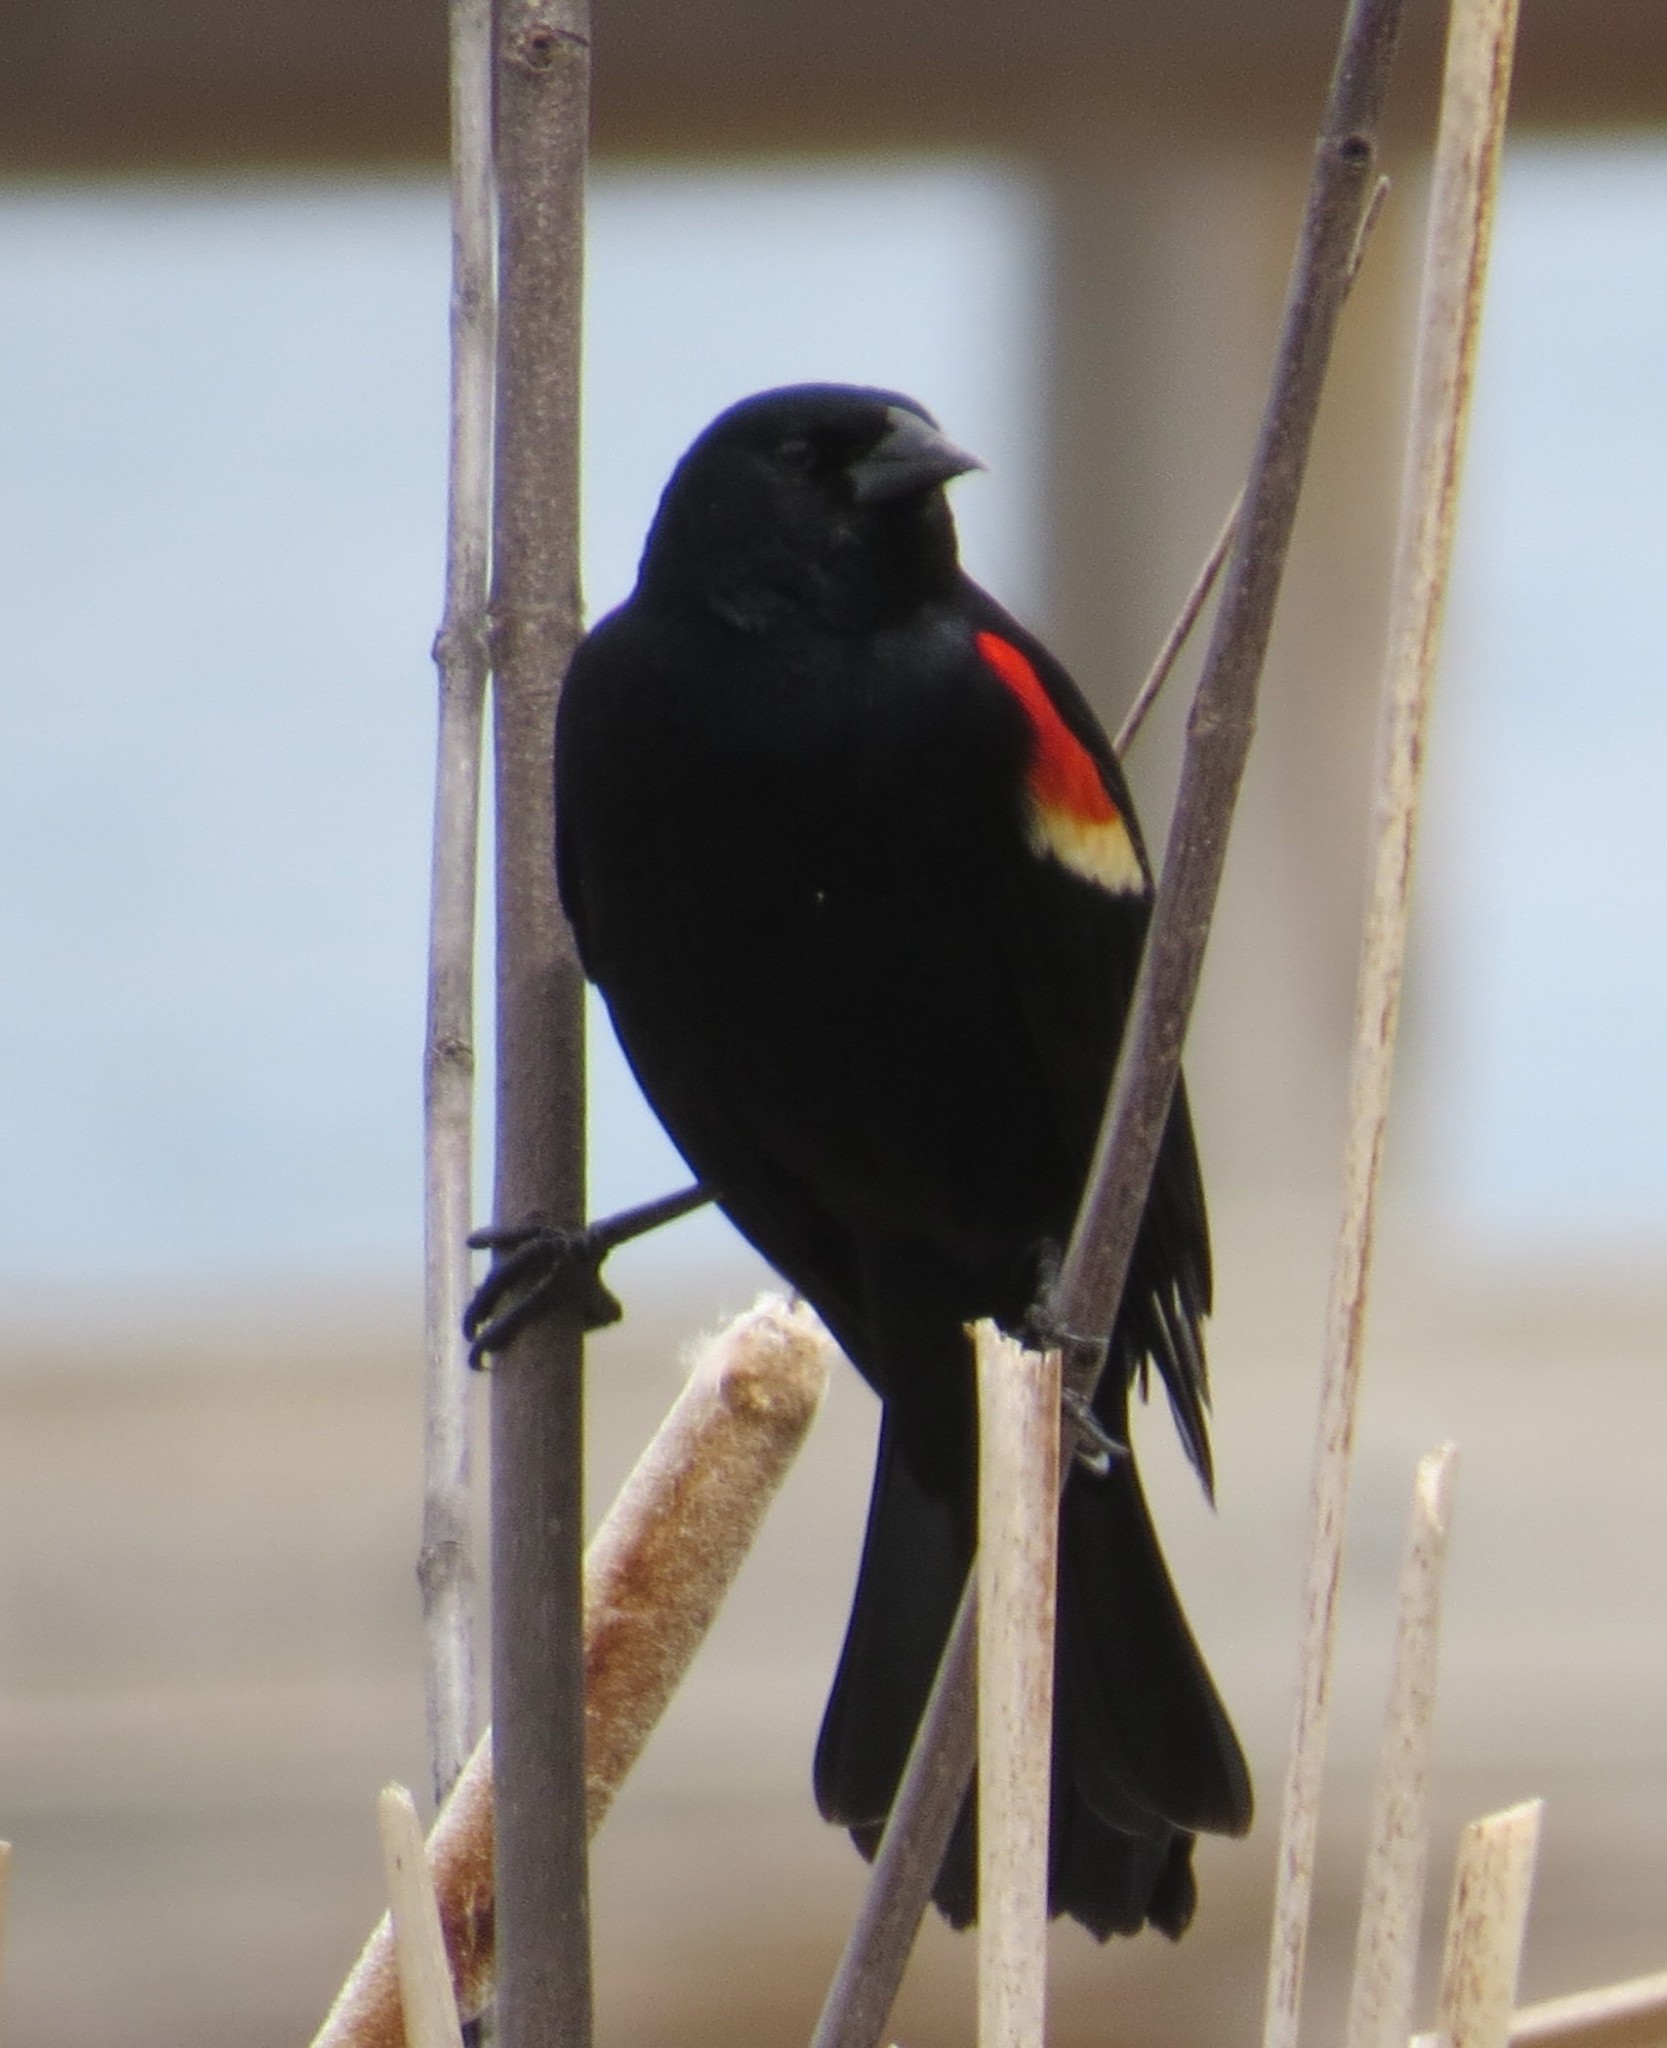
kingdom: Animalia
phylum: Chordata
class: Aves
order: Passeriformes
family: Icteridae
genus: Agelaius
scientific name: Agelaius phoeniceus
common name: Red-winged blackbird
